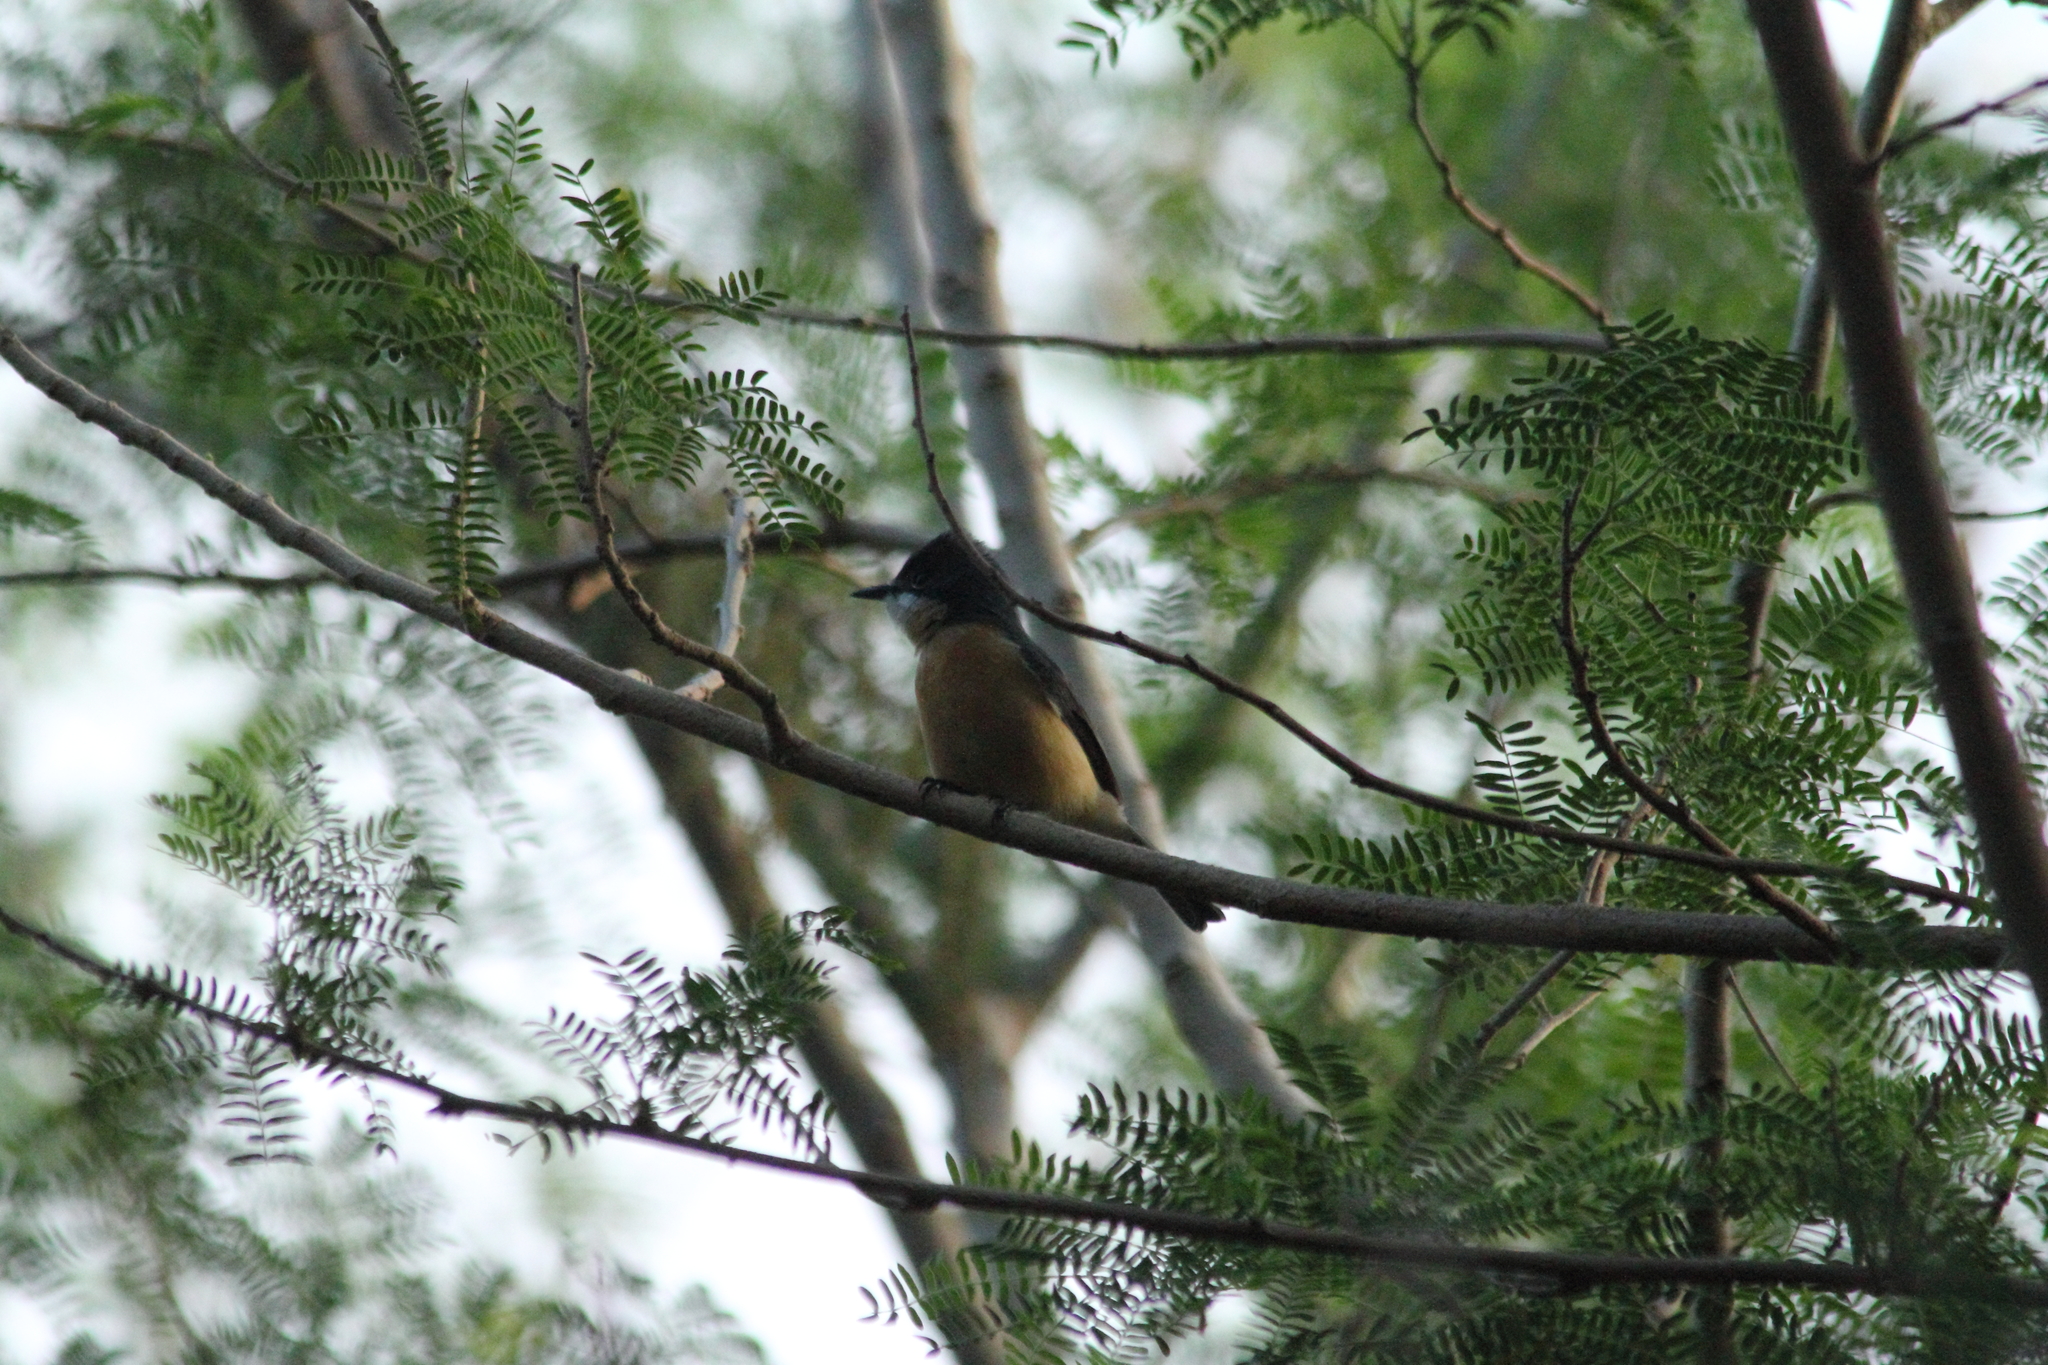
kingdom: Animalia
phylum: Chordata
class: Aves
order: Passeriformes
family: Monarchidae
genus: Myiagra
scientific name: Myiagra vanikorensis
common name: Vanikoro flycatcher
